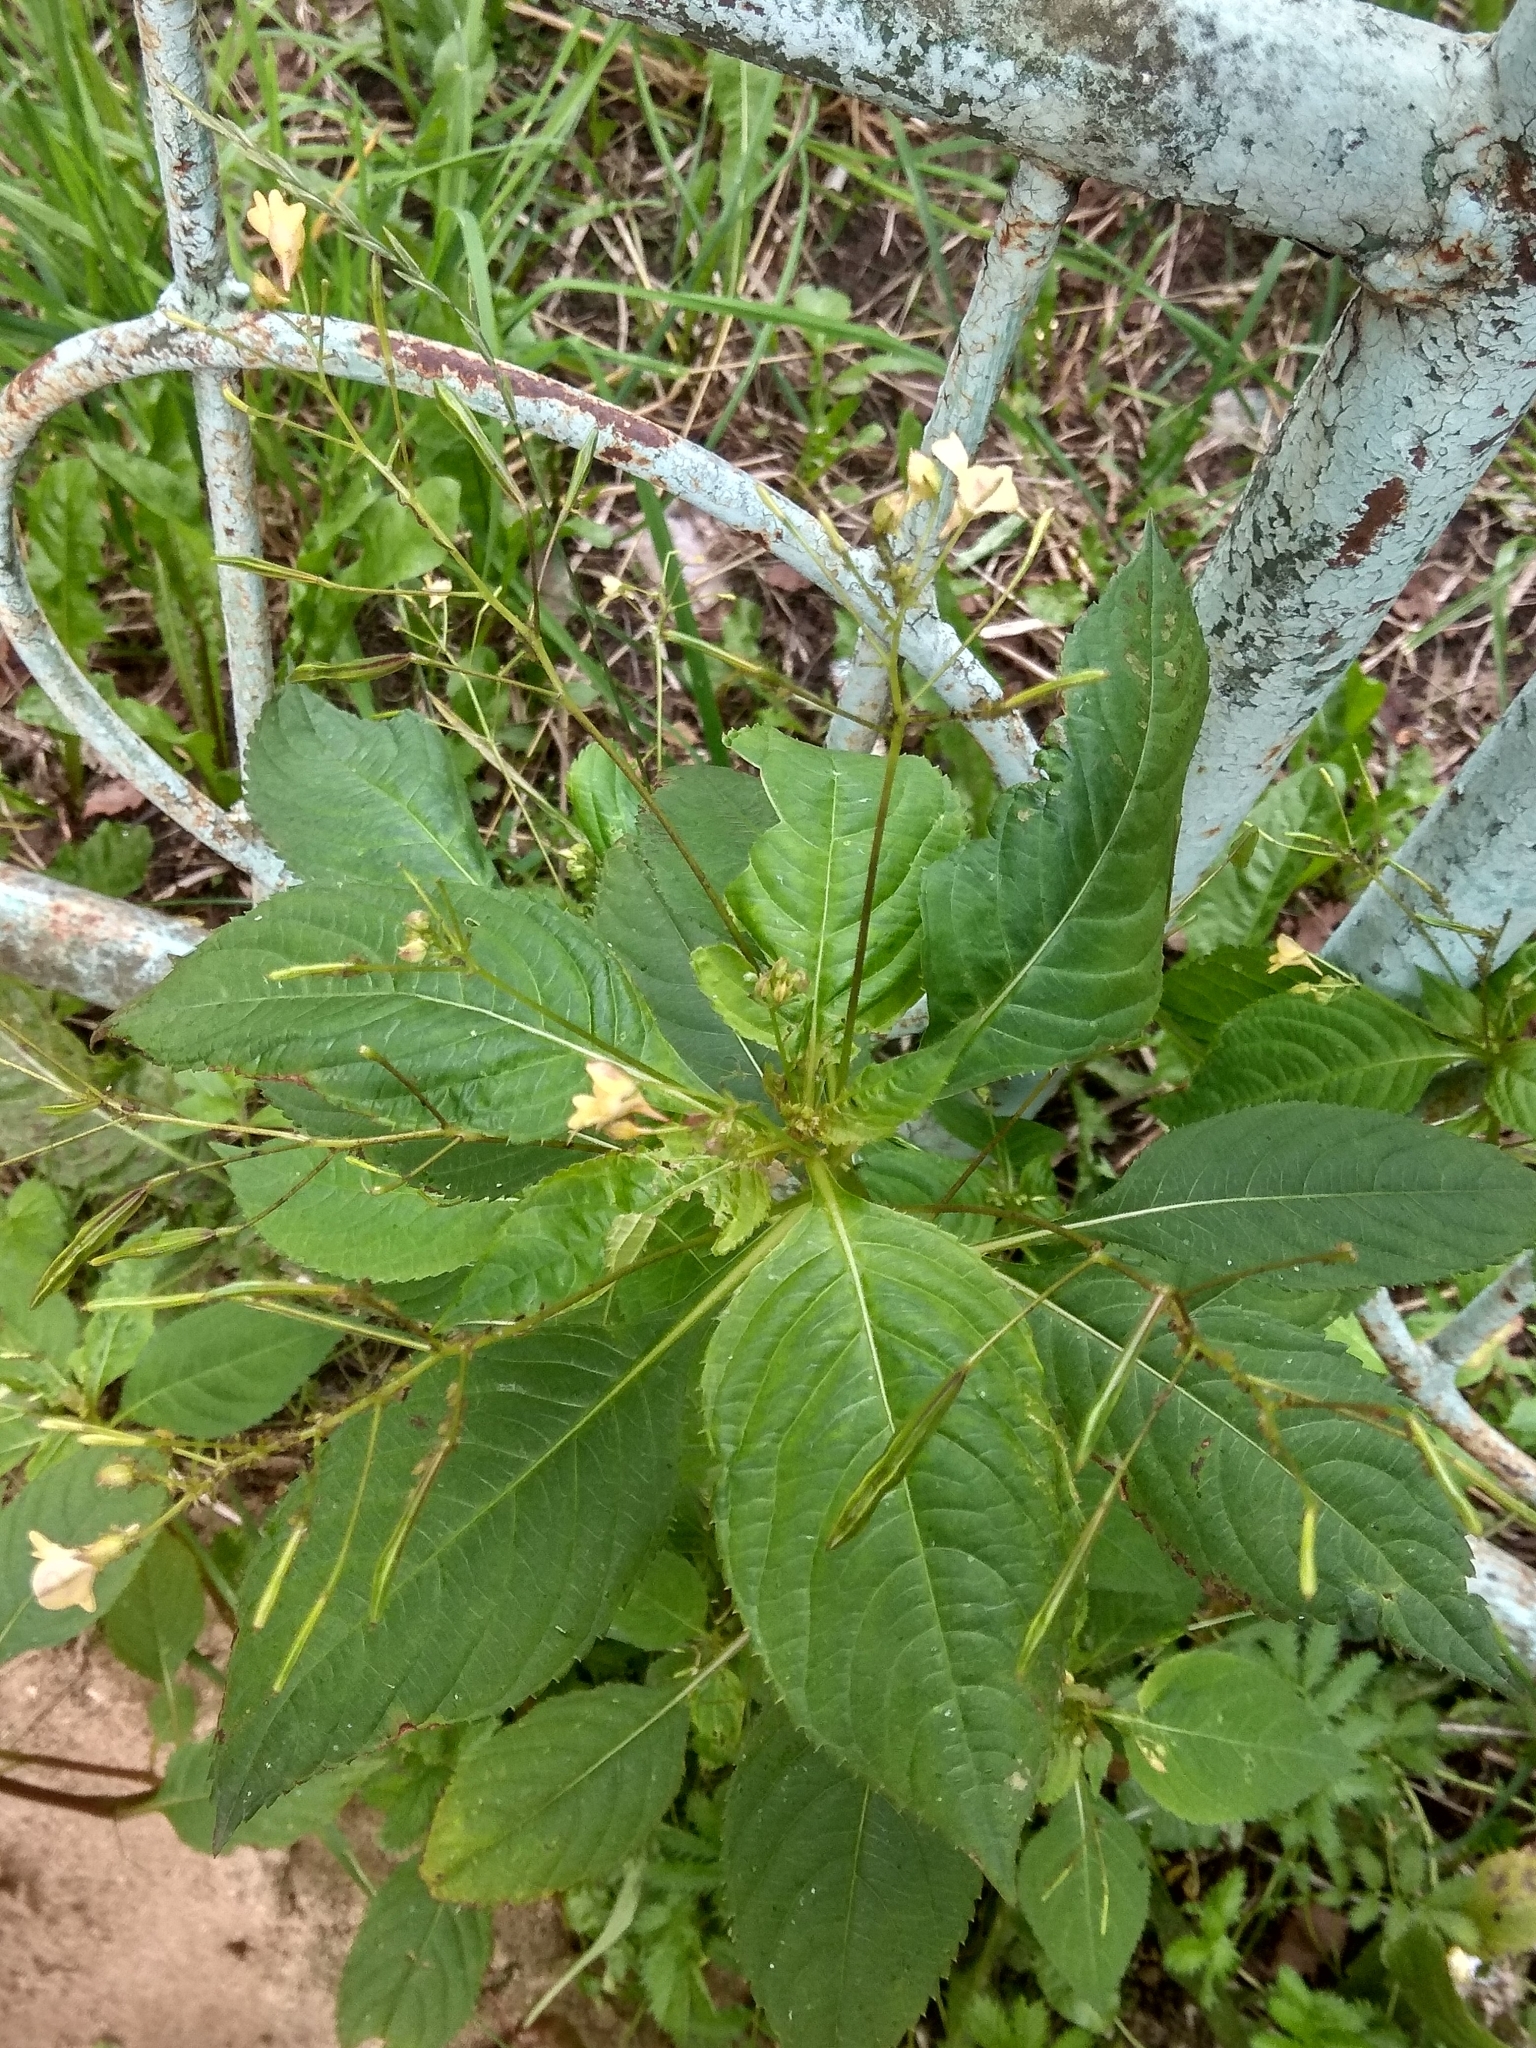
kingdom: Plantae
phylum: Tracheophyta
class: Magnoliopsida
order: Ericales
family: Balsaminaceae
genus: Impatiens
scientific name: Impatiens parviflora
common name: Small balsam
